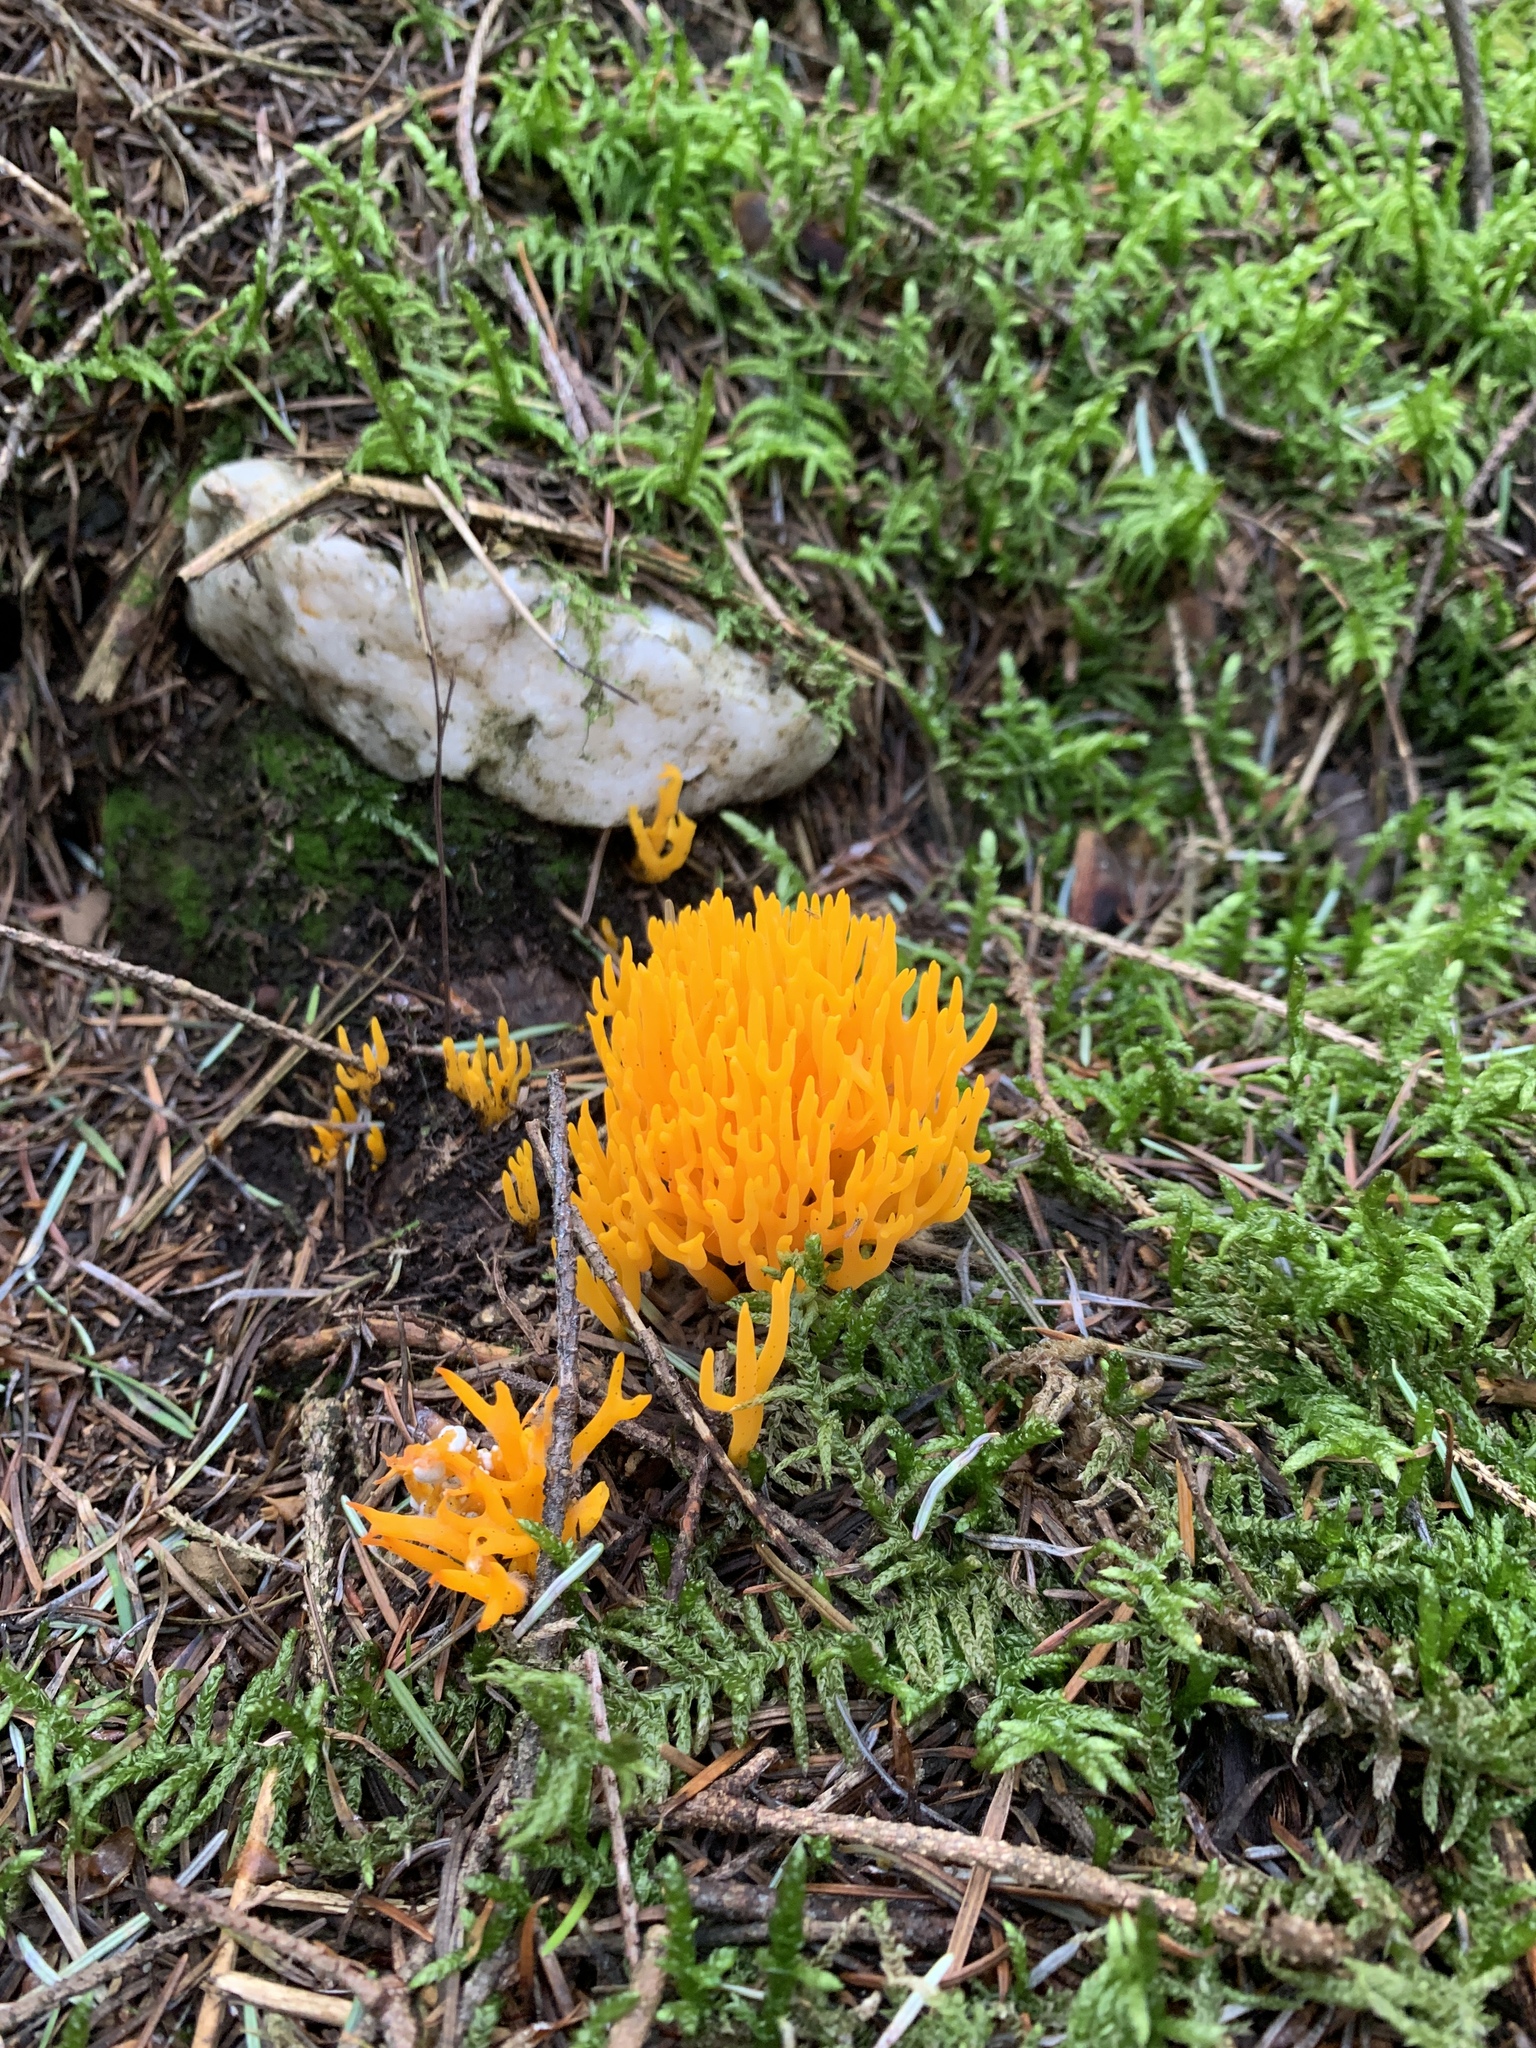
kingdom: Fungi
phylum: Basidiomycota
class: Dacrymycetes
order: Dacrymycetales
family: Dacrymycetaceae
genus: Calocera
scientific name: Calocera viscosa
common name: Yellow stagshorn
